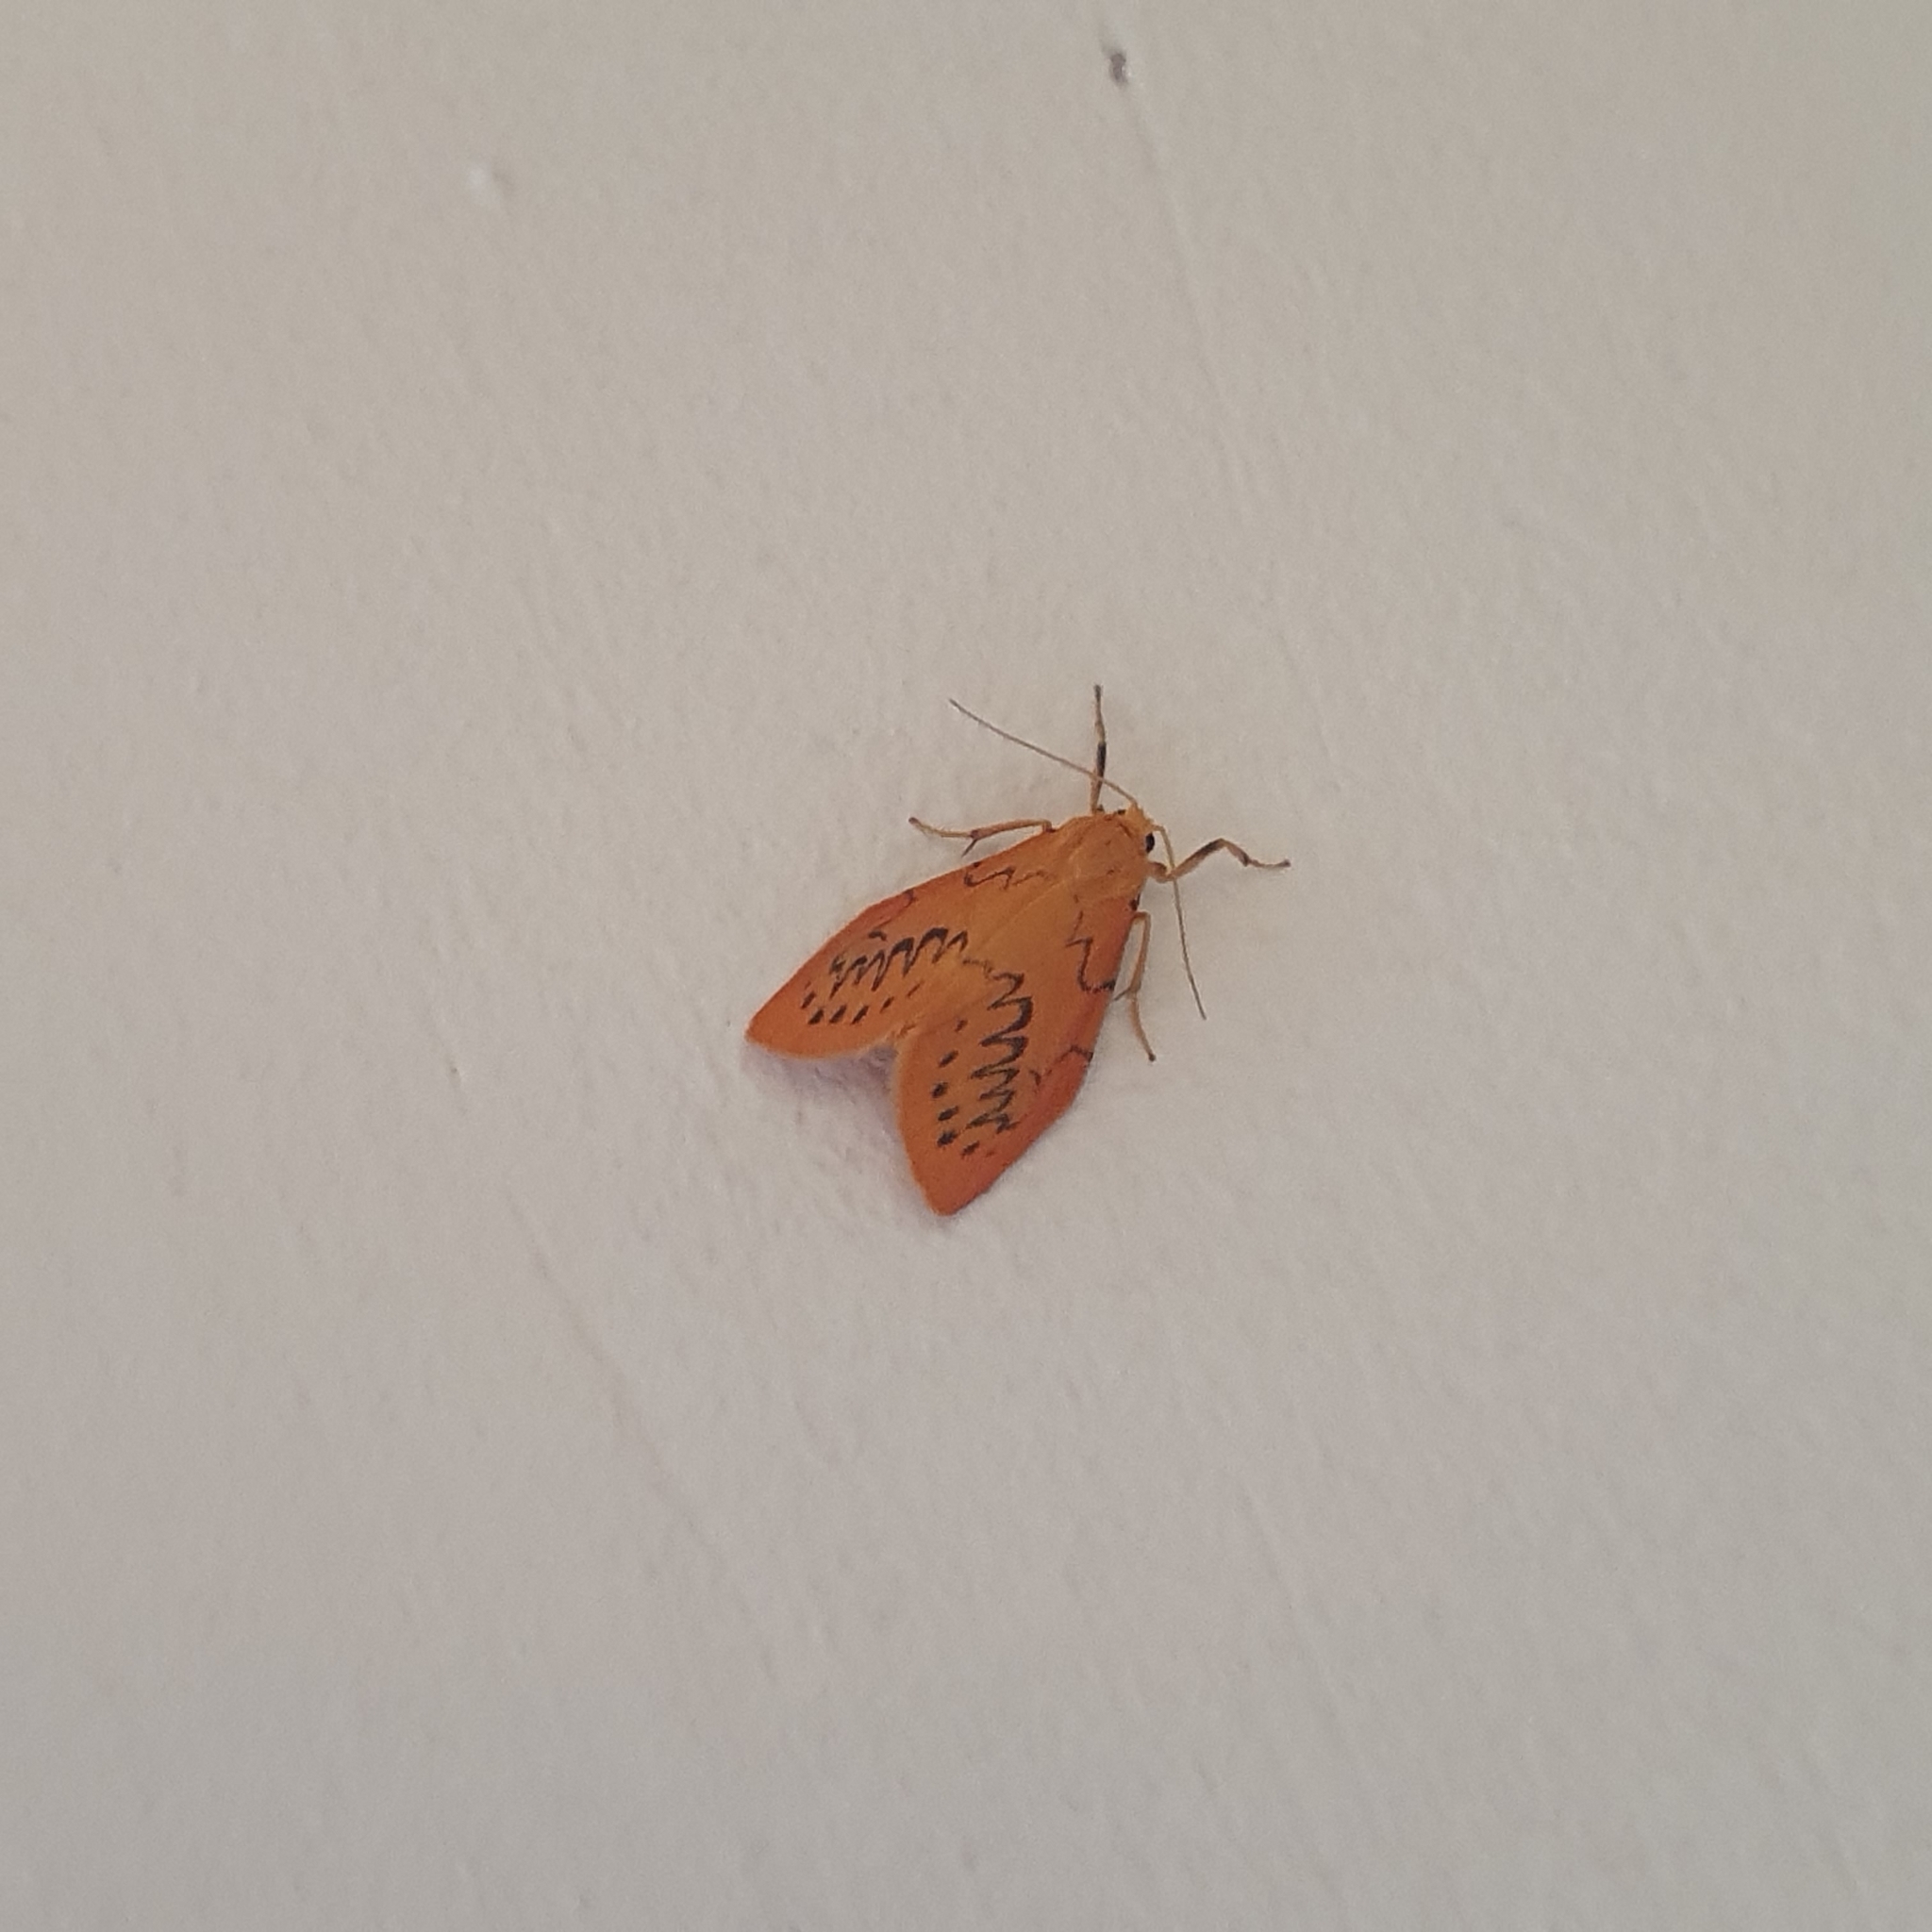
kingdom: Animalia
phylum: Arthropoda
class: Insecta
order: Lepidoptera
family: Erebidae
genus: Miltochrista
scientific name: Miltochrista miniata
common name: Rosy footman
